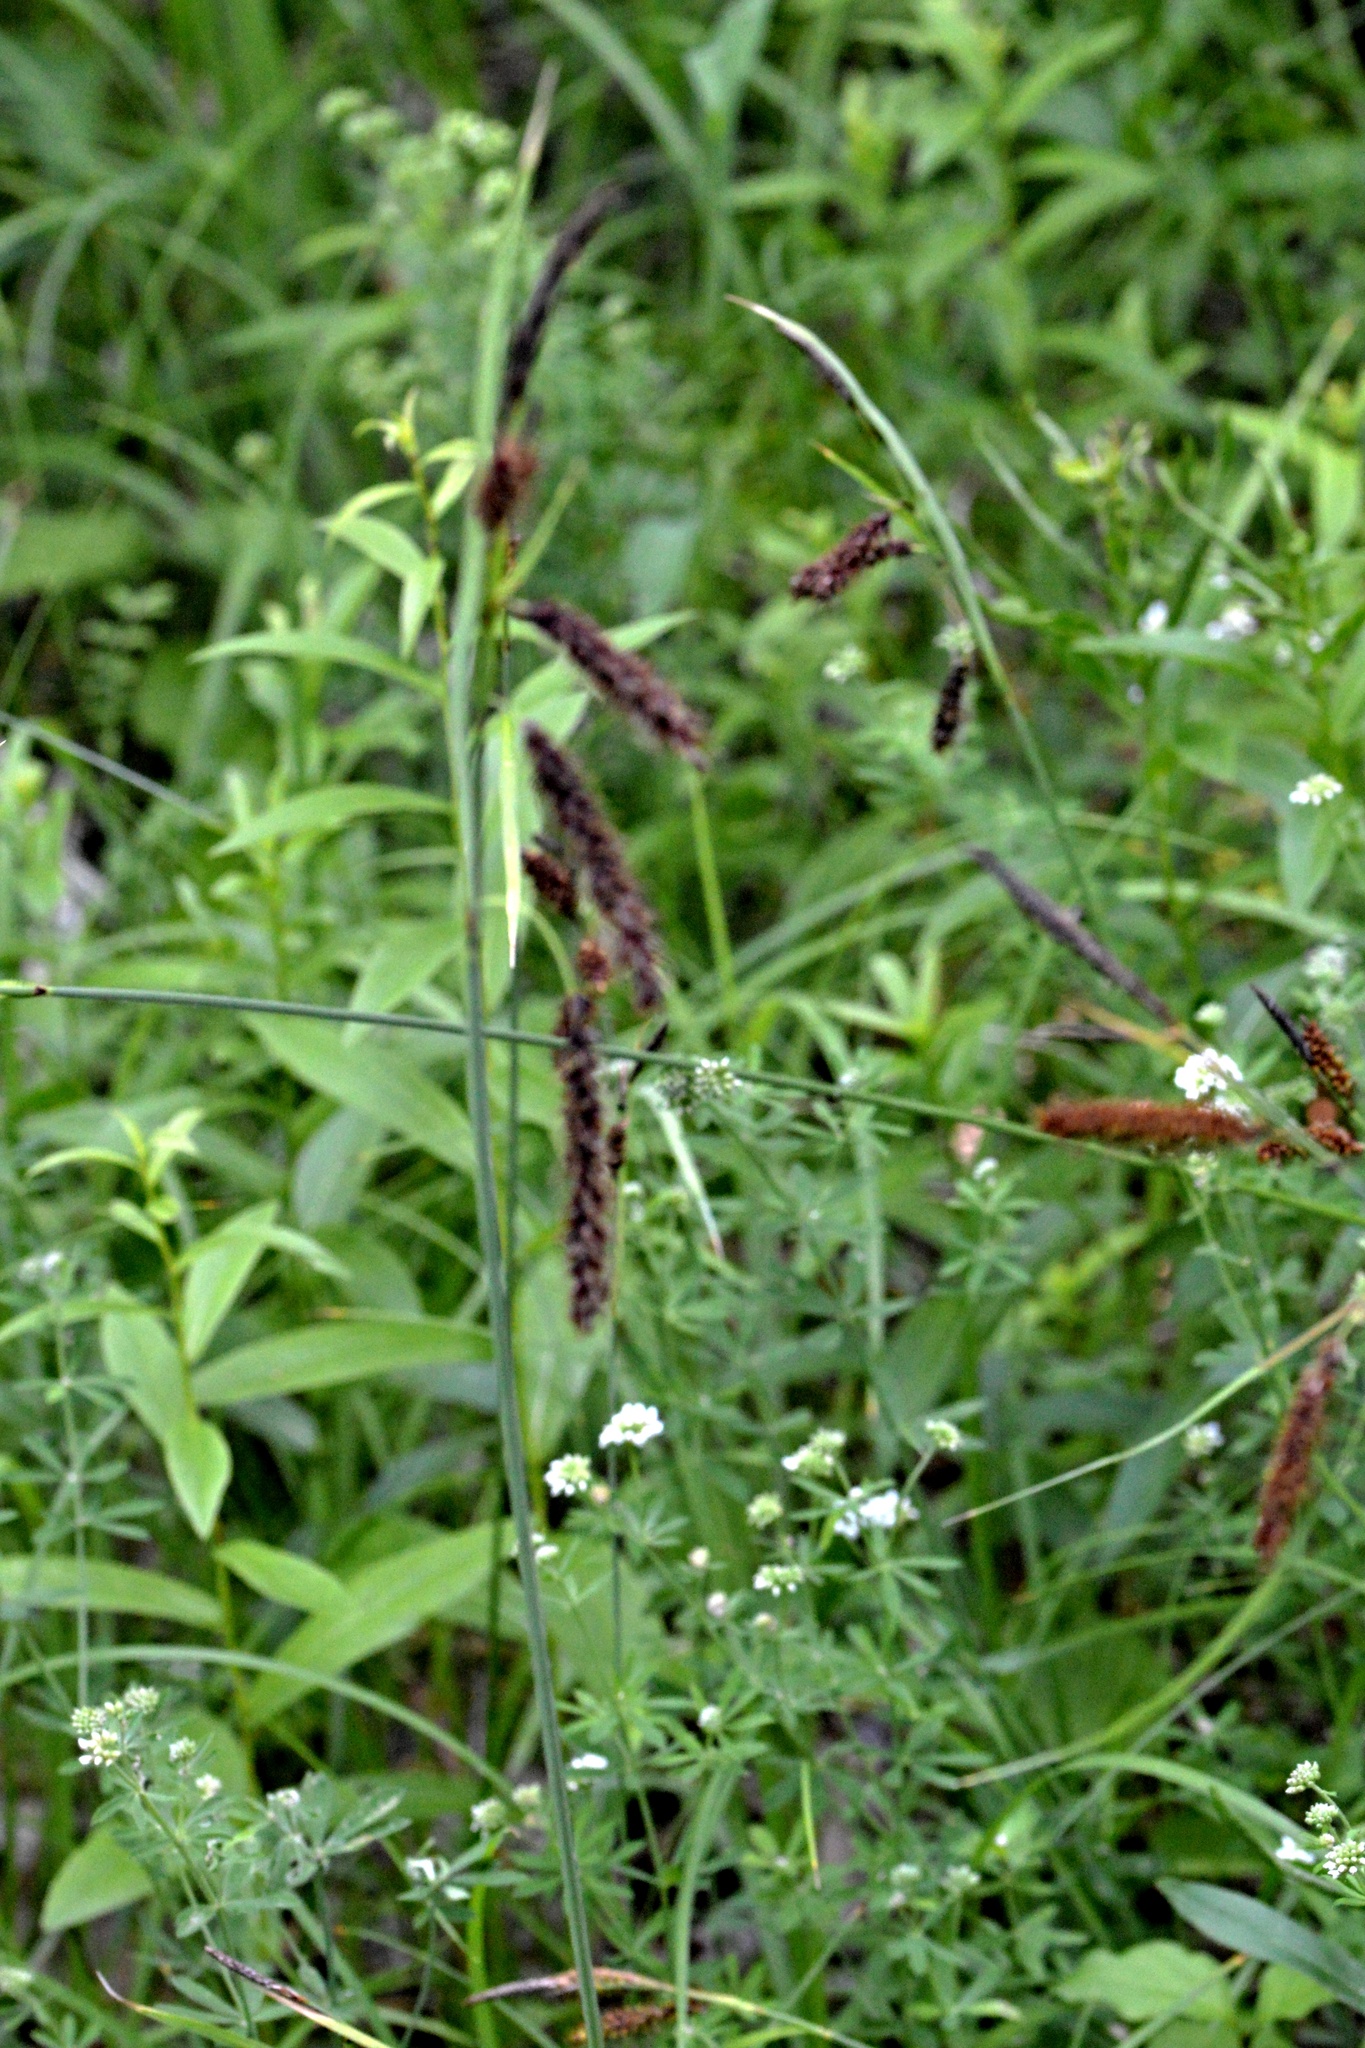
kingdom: Plantae
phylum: Tracheophyta
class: Liliopsida
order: Poales
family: Cyperaceae
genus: Carex
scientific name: Carex flacca
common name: Glaucous sedge
